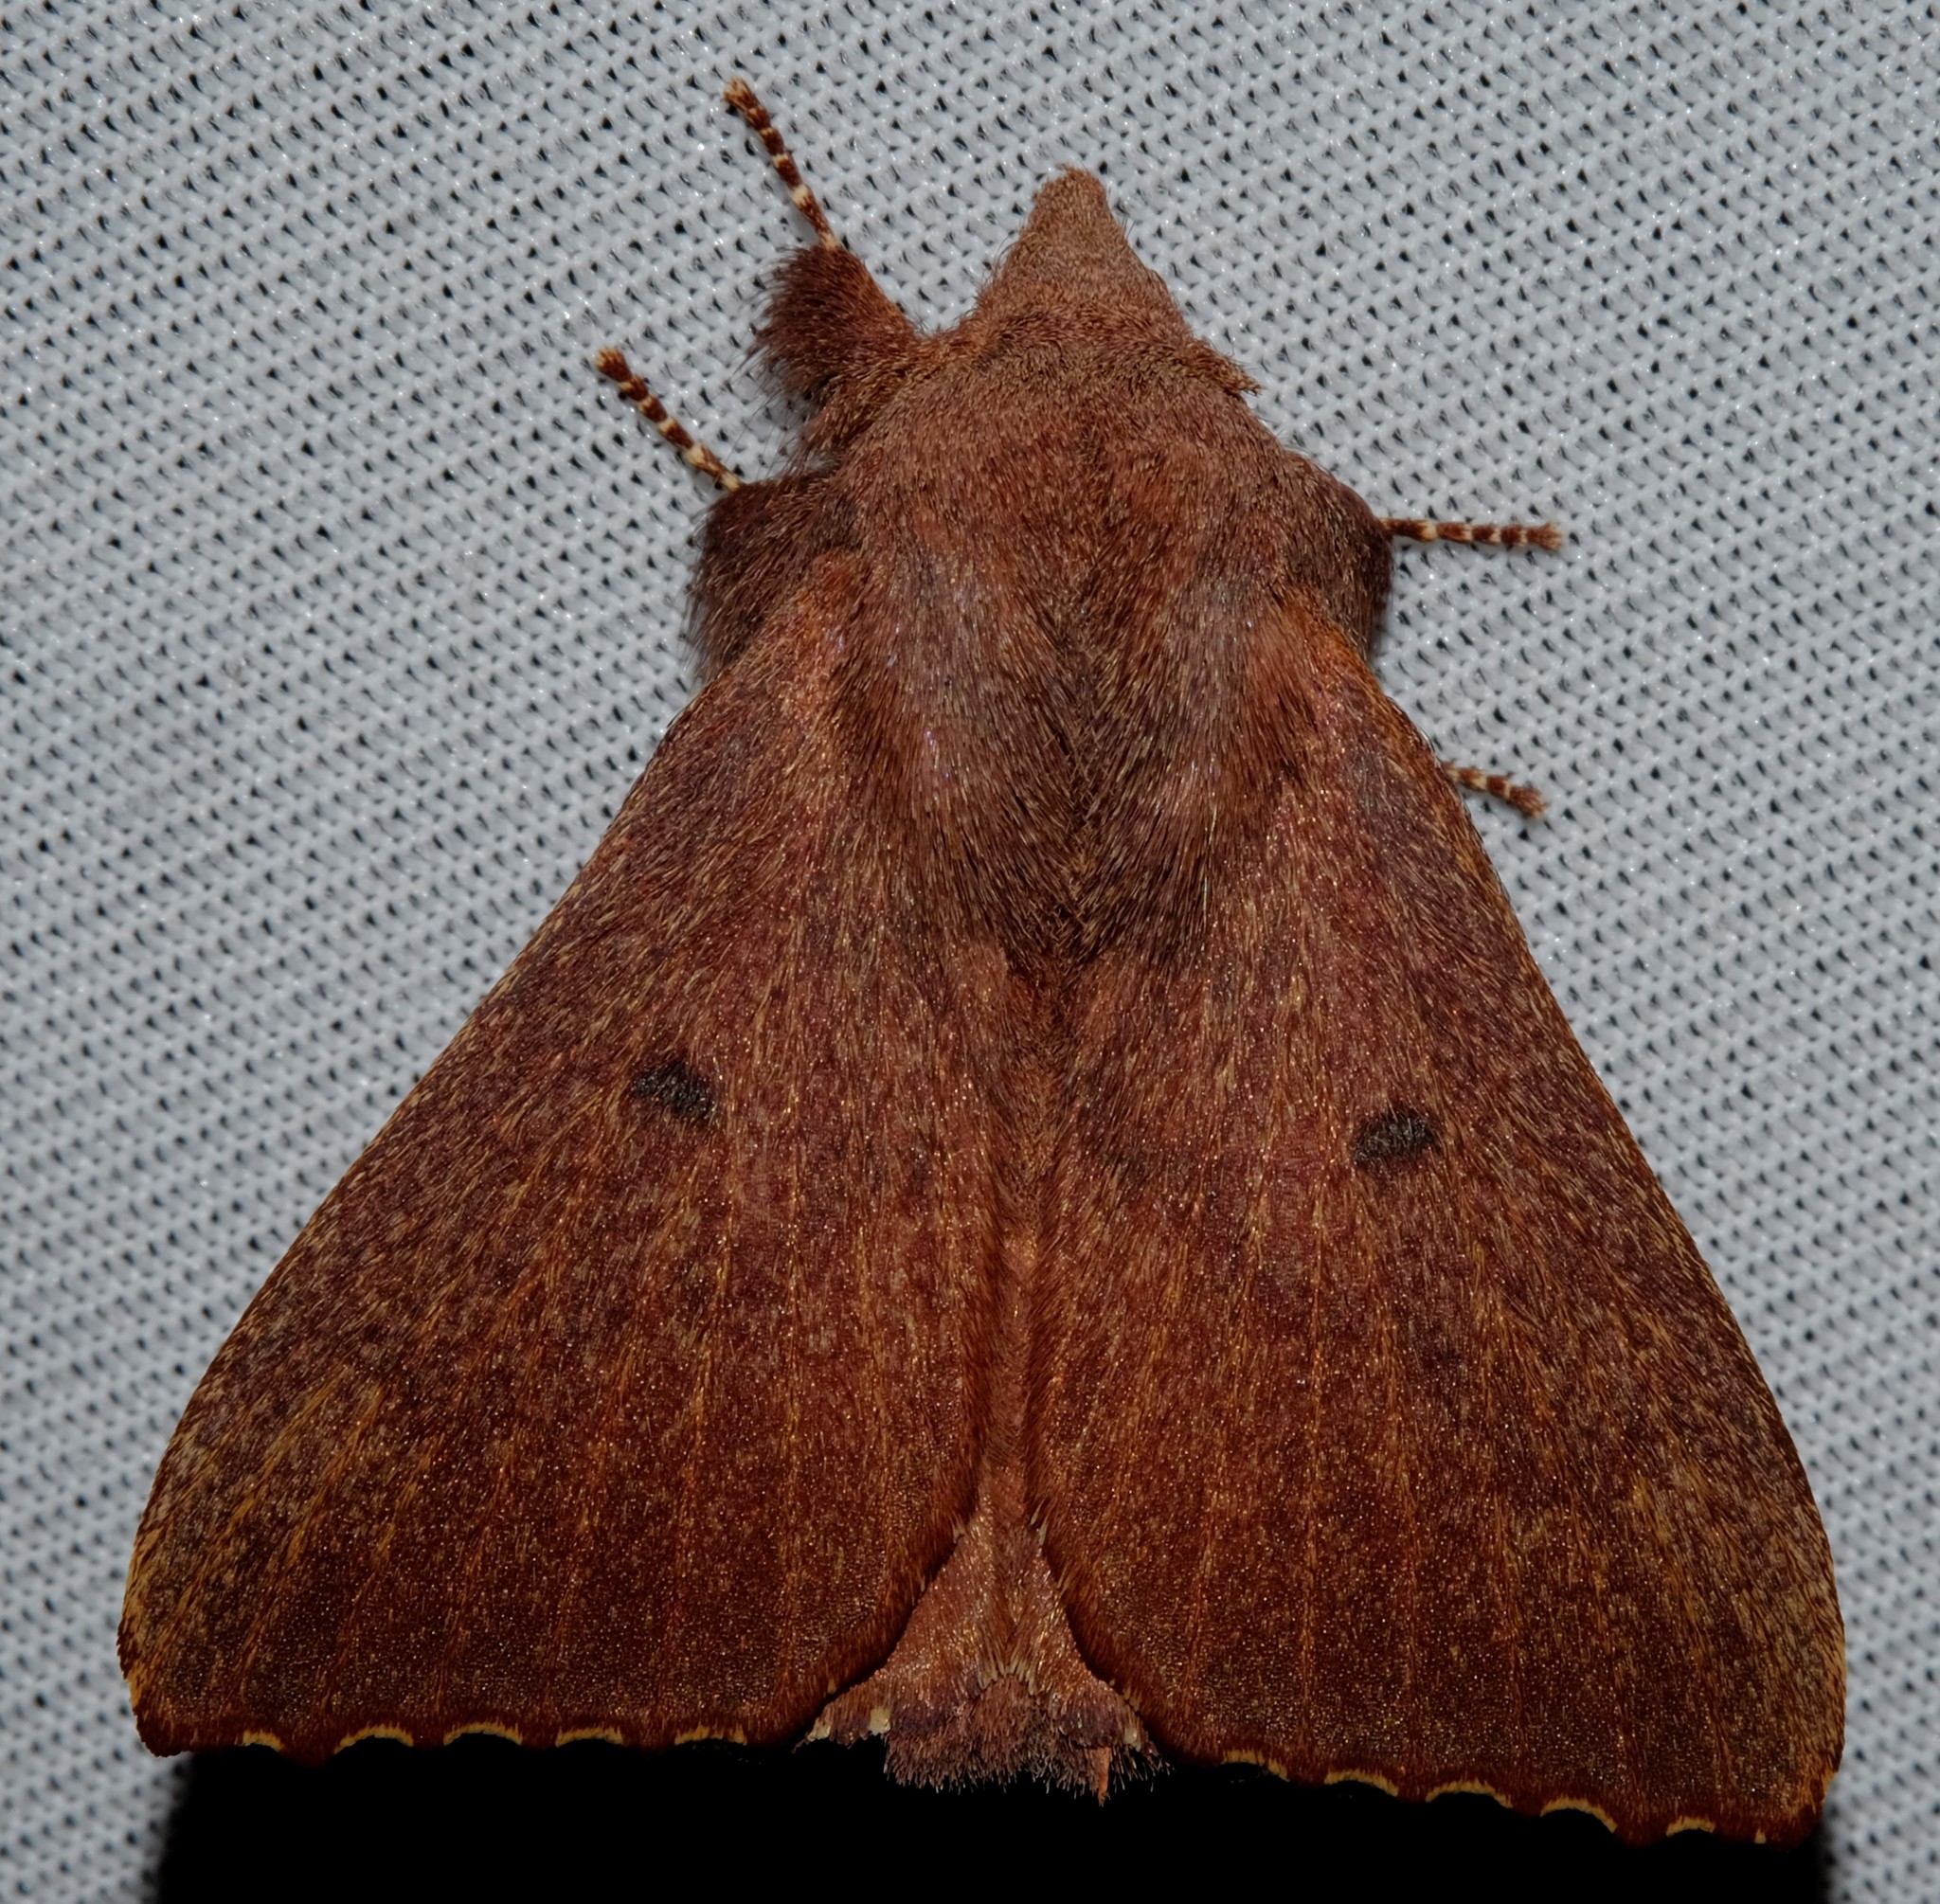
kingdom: Animalia
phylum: Arthropoda
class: Insecta
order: Lepidoptera
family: Lasiocampidae
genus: Pararguda
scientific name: Pararguda crenulata
